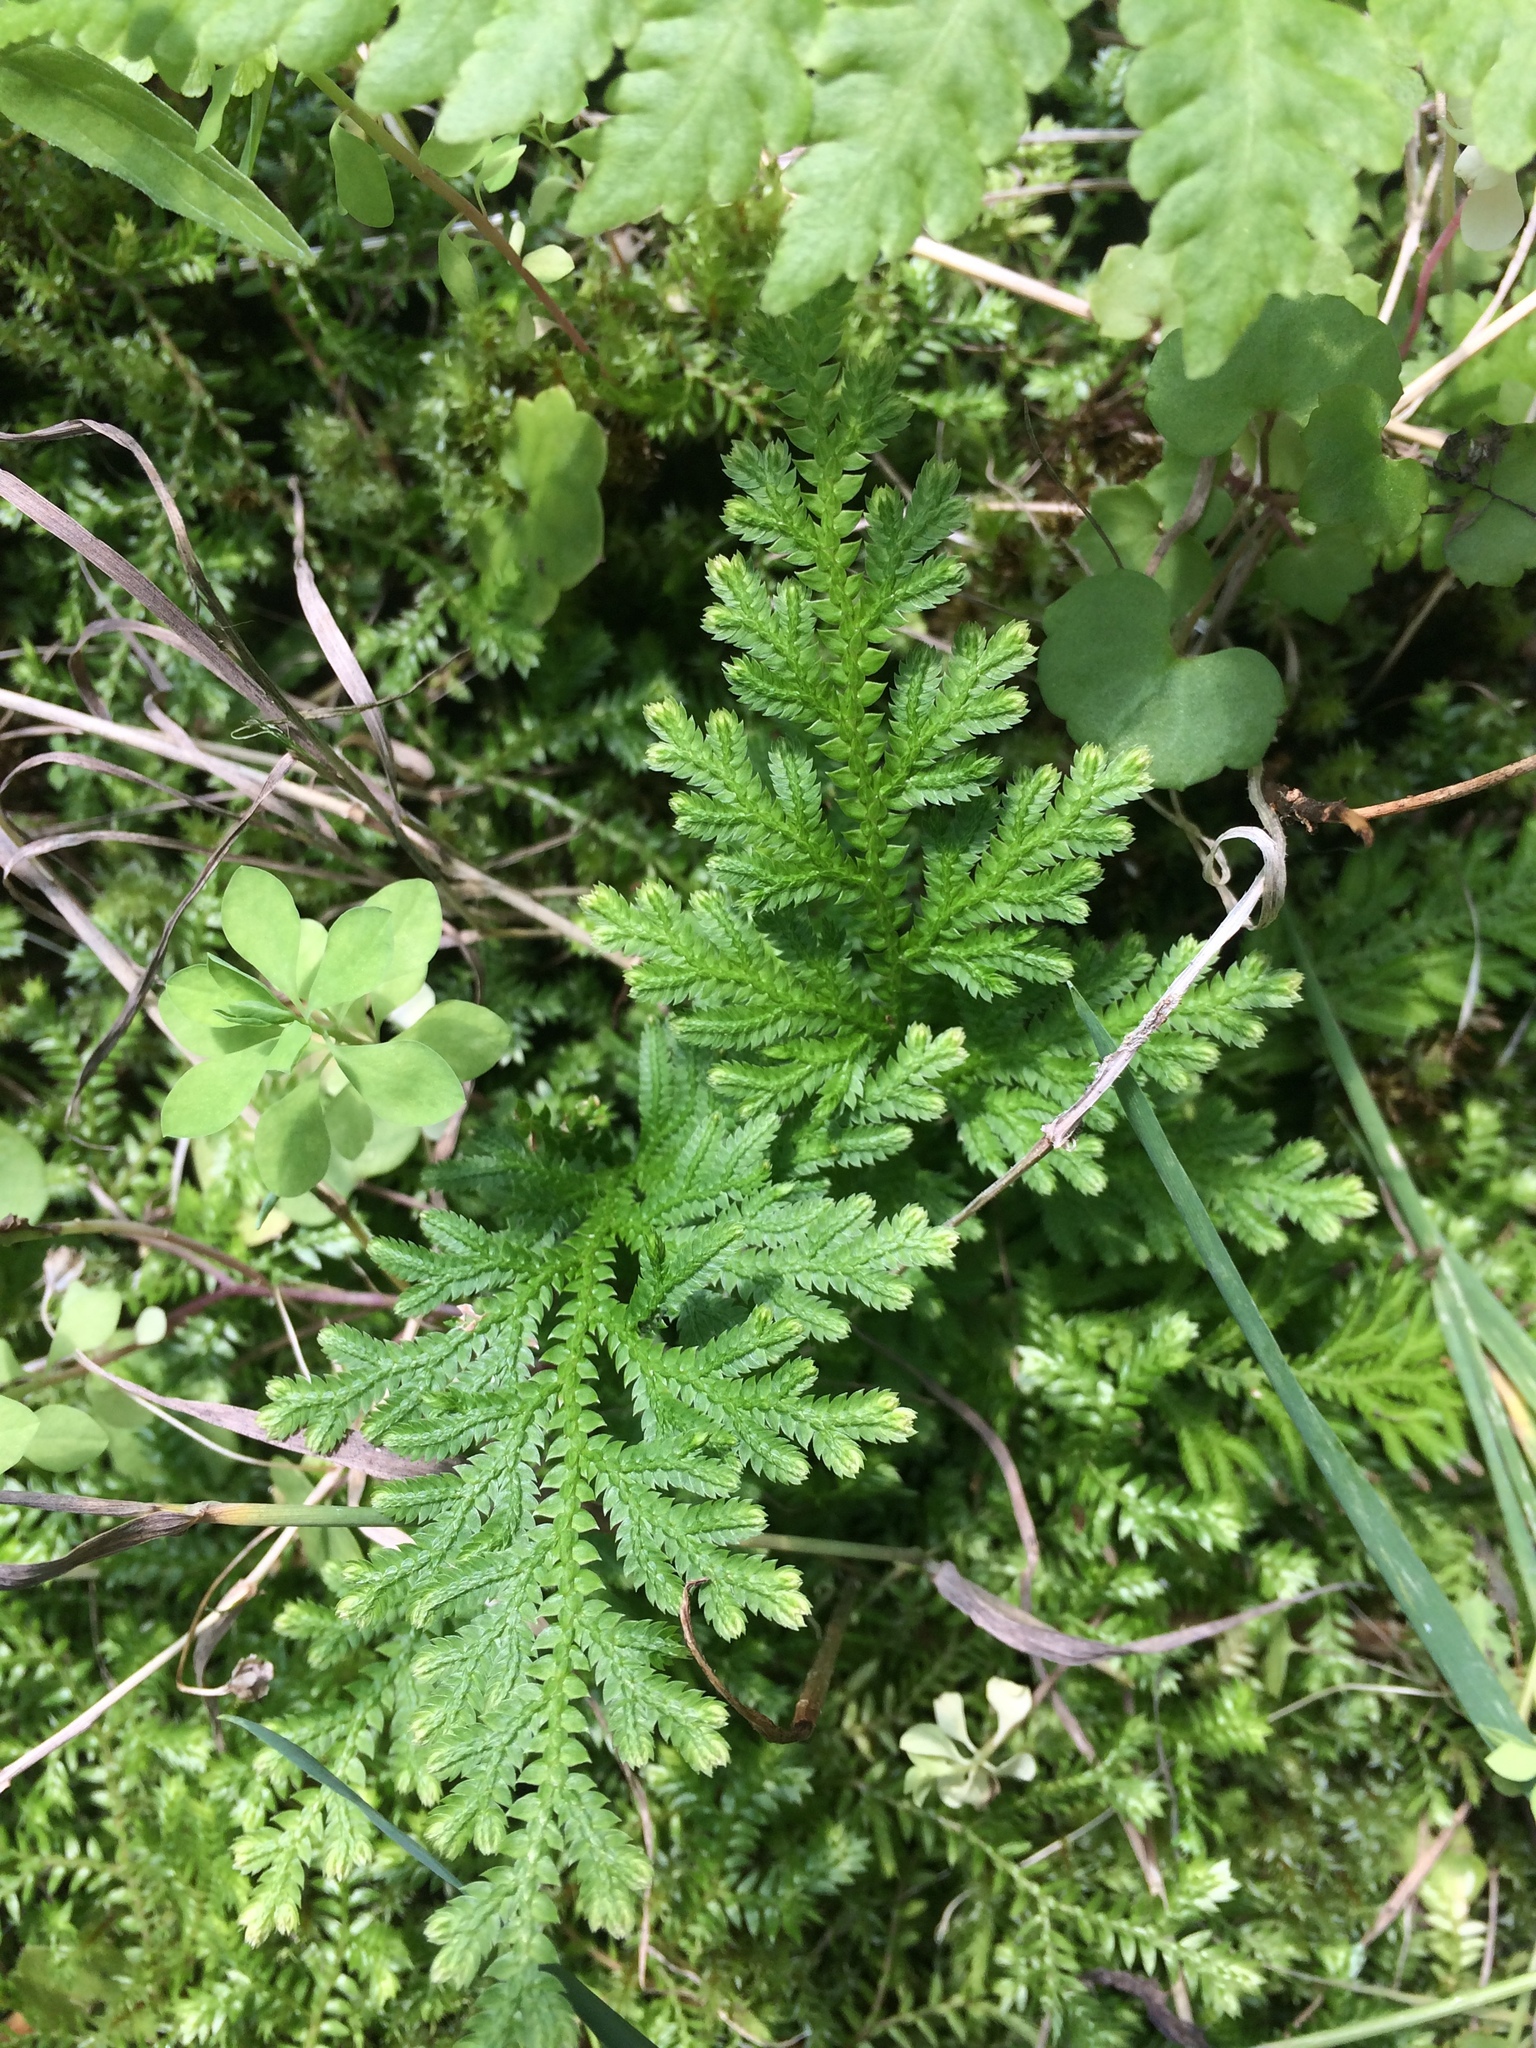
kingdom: Plantae
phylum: Tracheophyta
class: Lycopodiopsida
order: Selaginellales
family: Selaginellaceae
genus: Selaginella
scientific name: Selaginella moellendorffii
